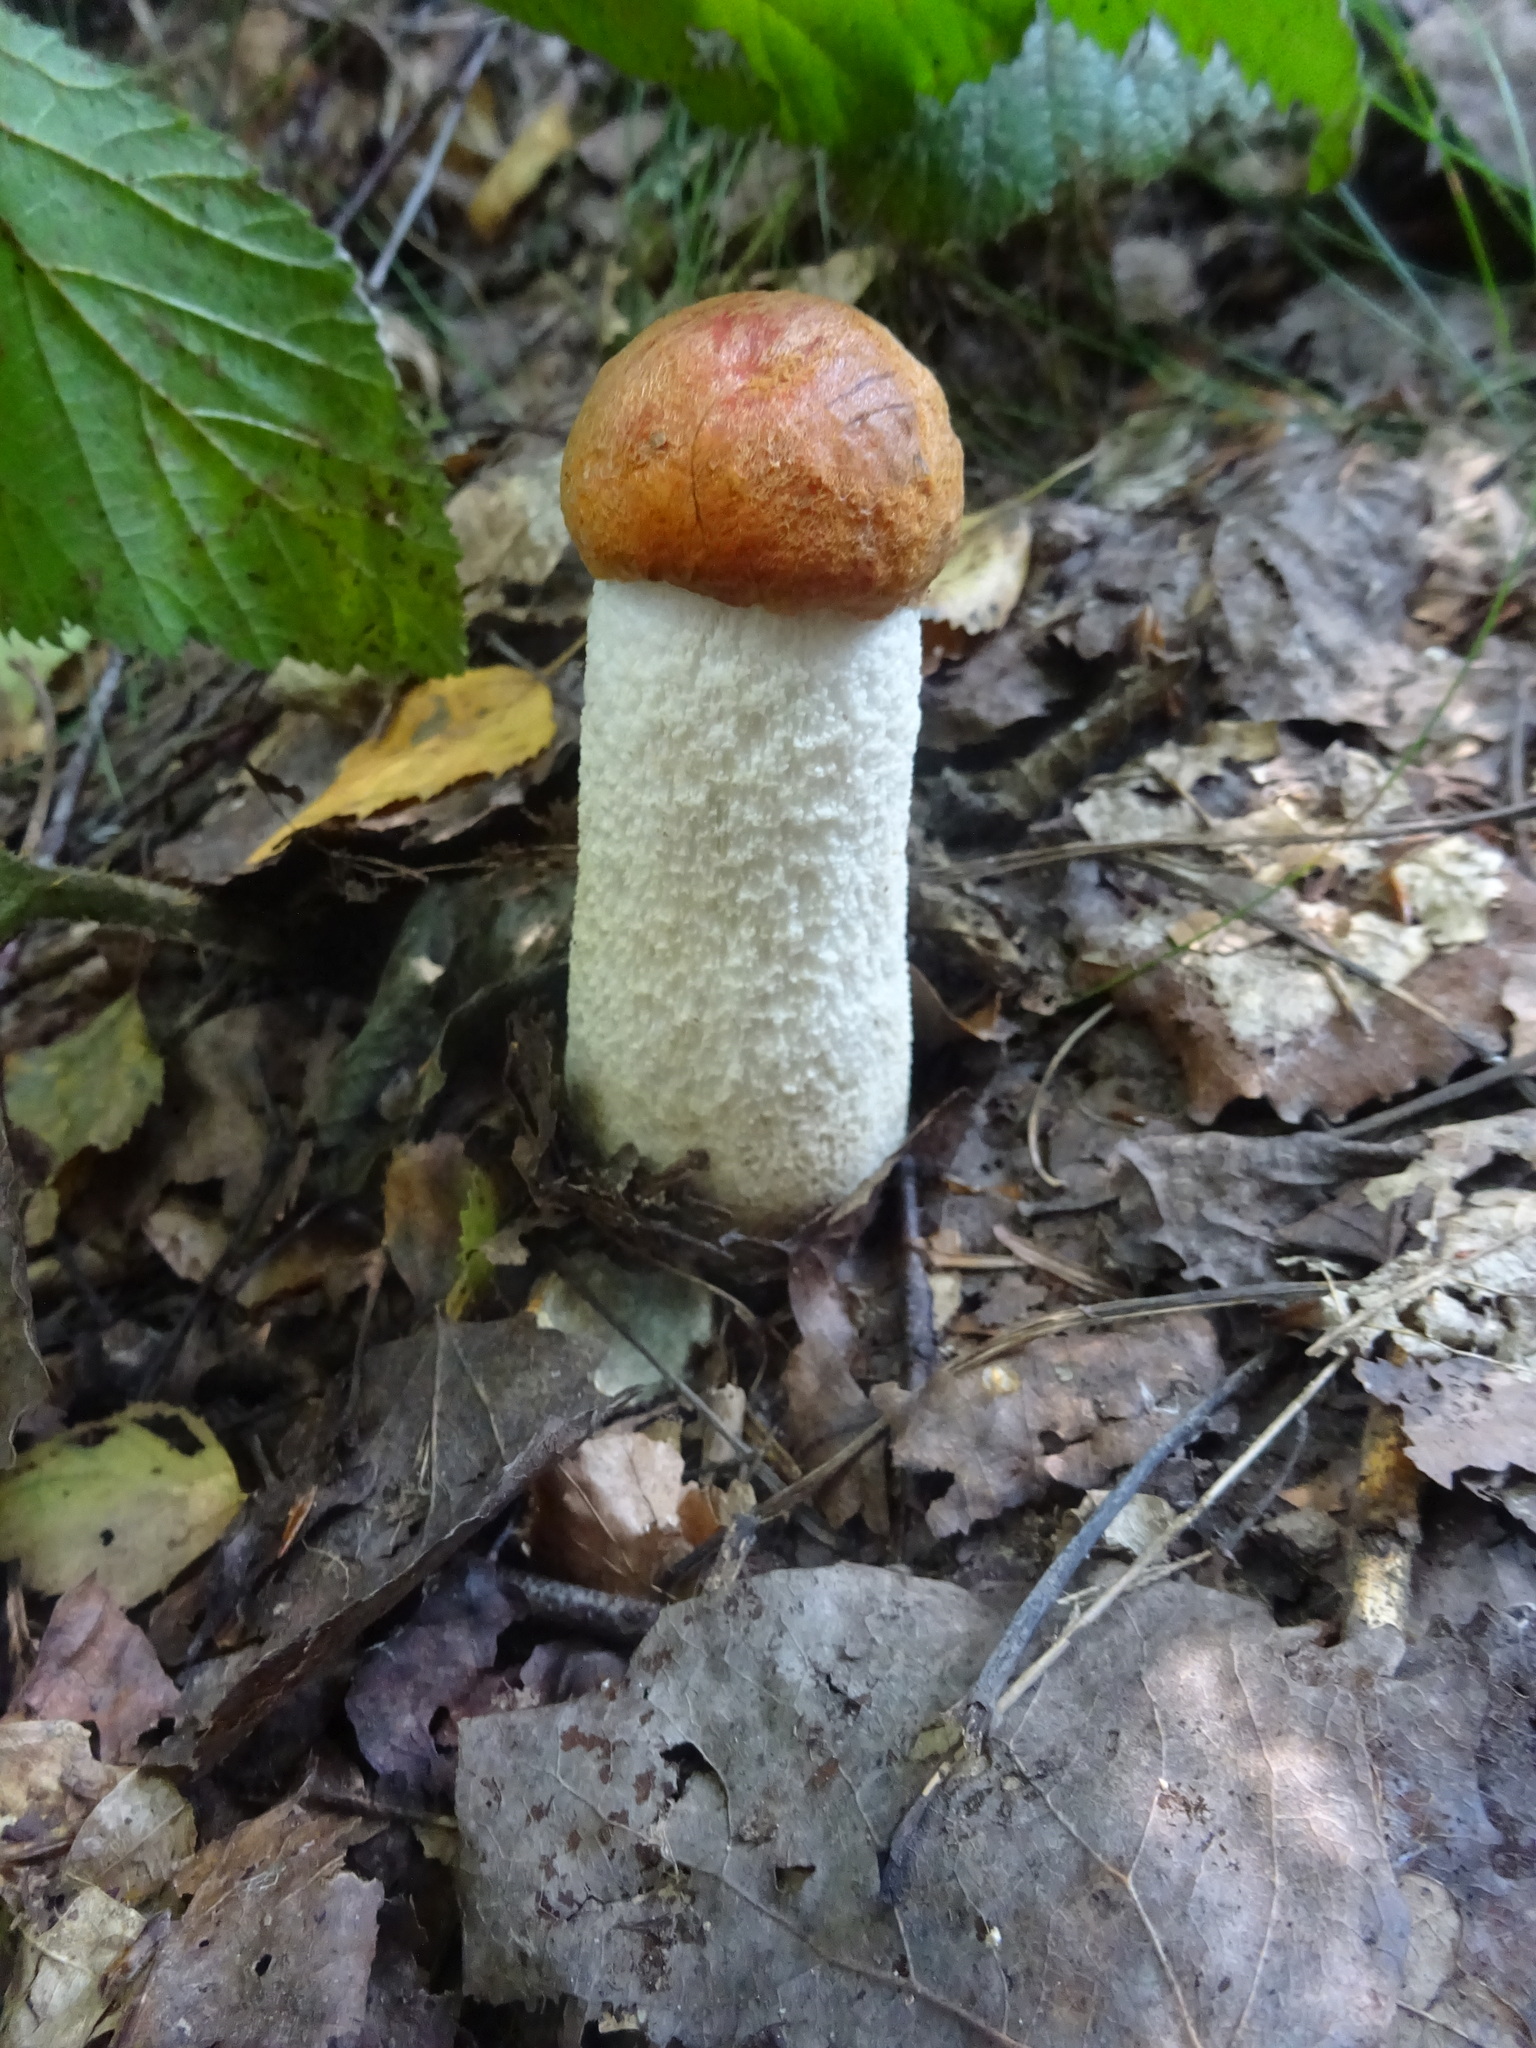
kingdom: Fungi
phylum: Basidiomycota
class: Agaricomycetes
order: Boletales
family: Boletaceae
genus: Leccinum
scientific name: Leccinum albostipitatum
